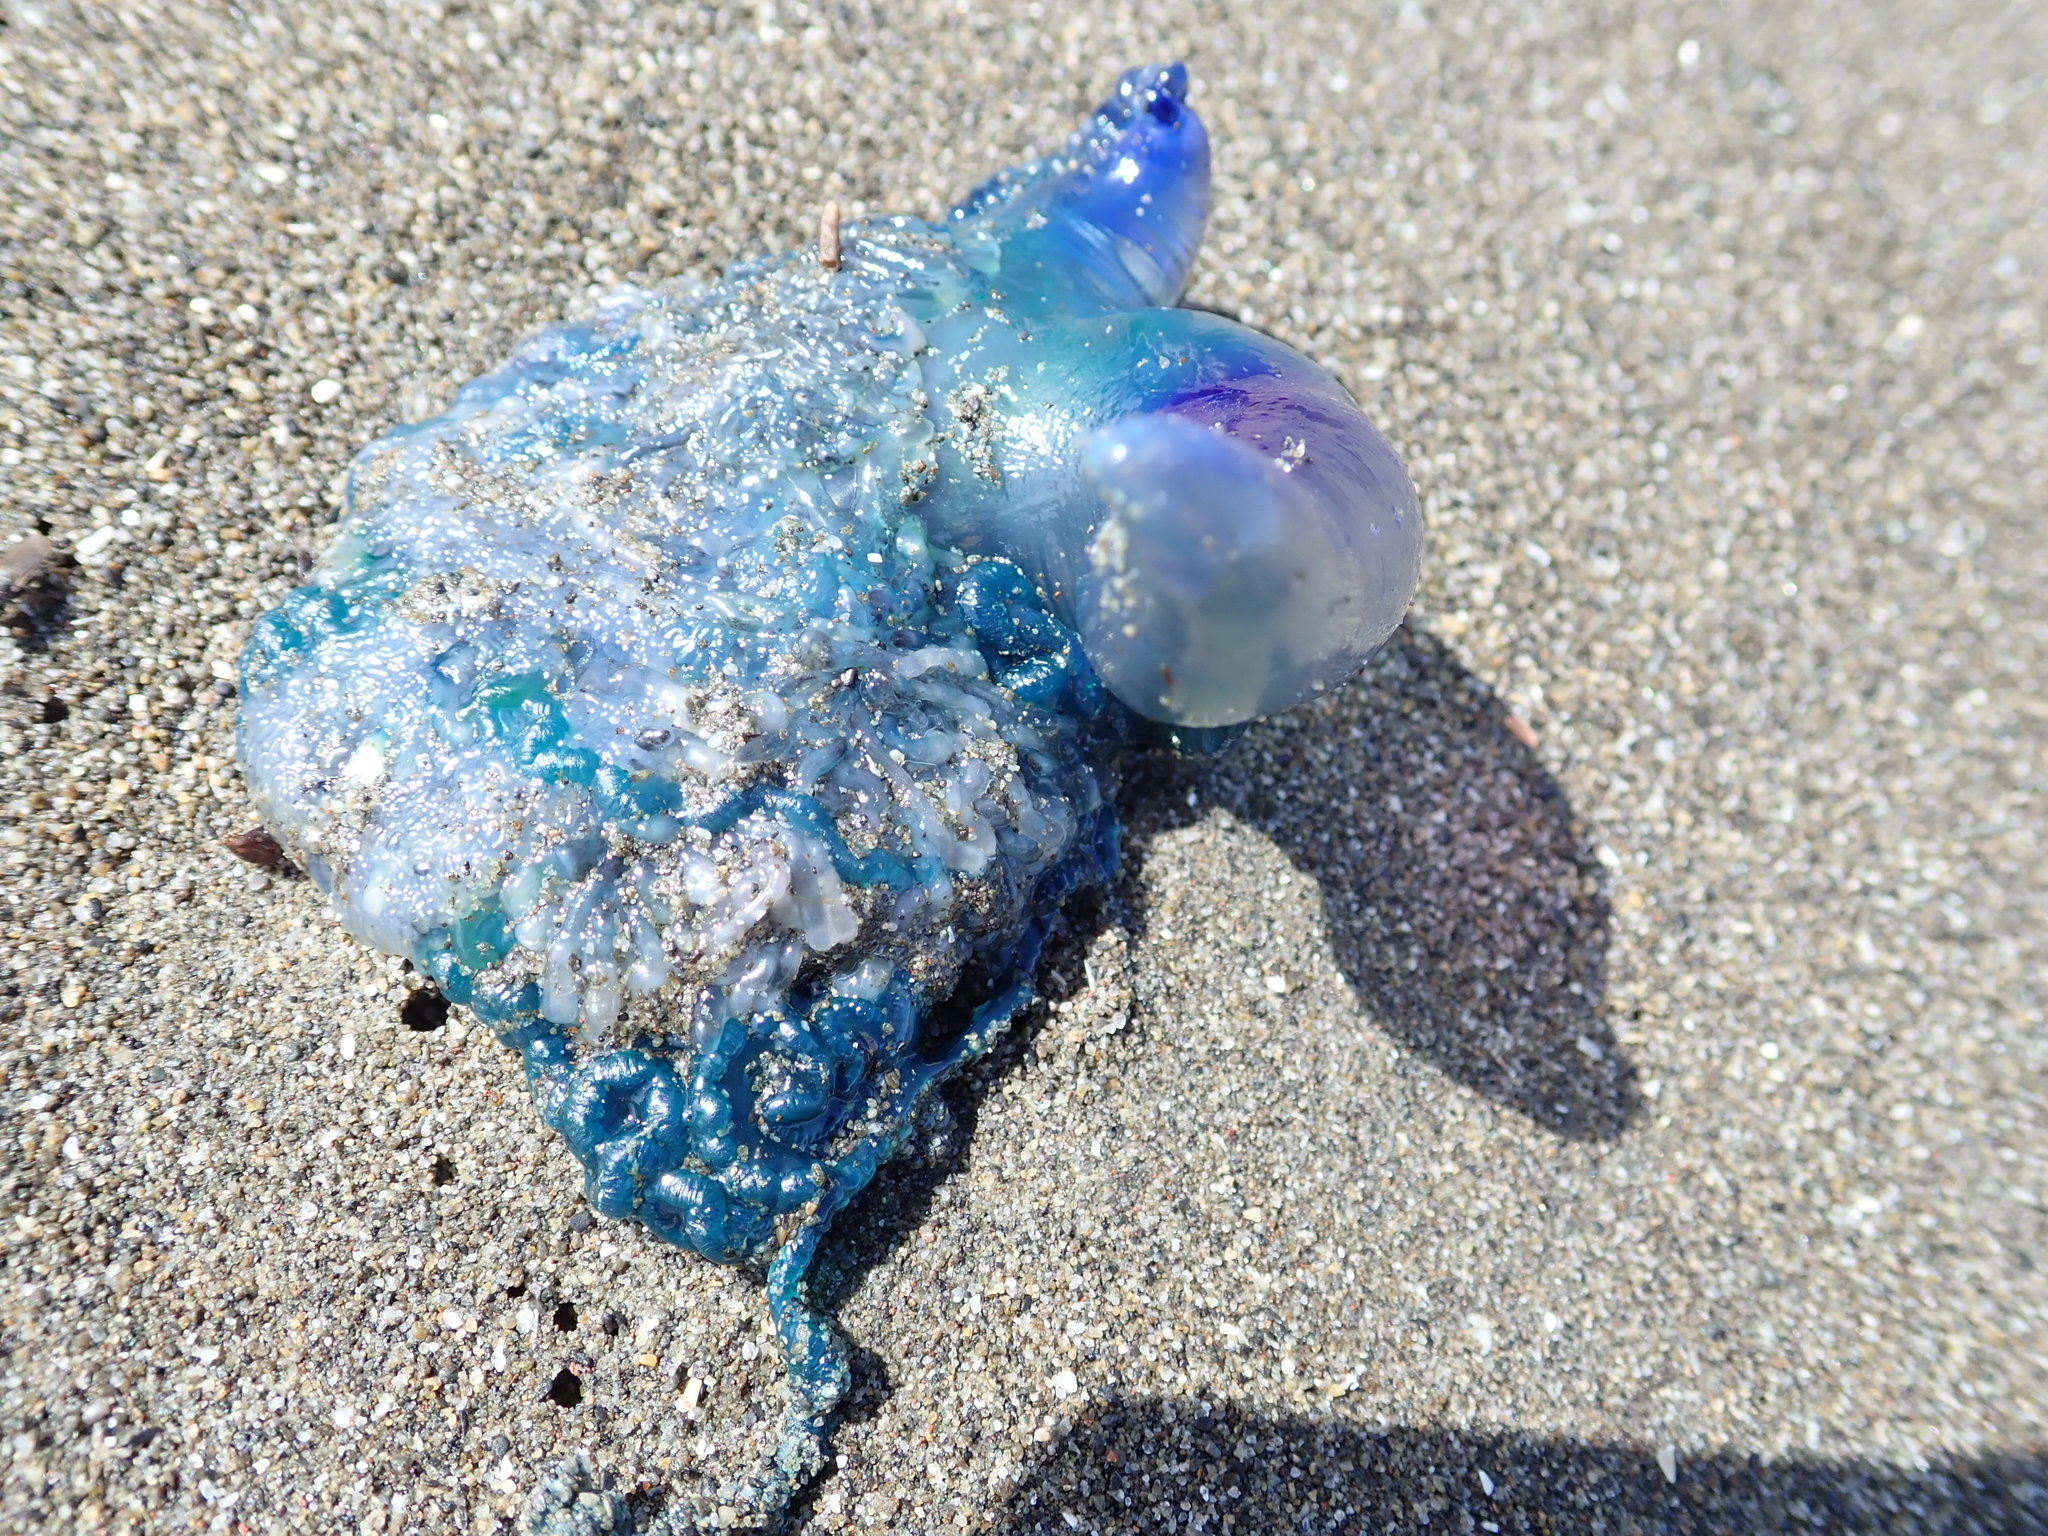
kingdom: Animalia
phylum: Cnidaria
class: Hydrozoa
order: Siphonophorae
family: Physaliidae
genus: Physalia
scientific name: Physalia physalis
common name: Portuguese man-of-war
